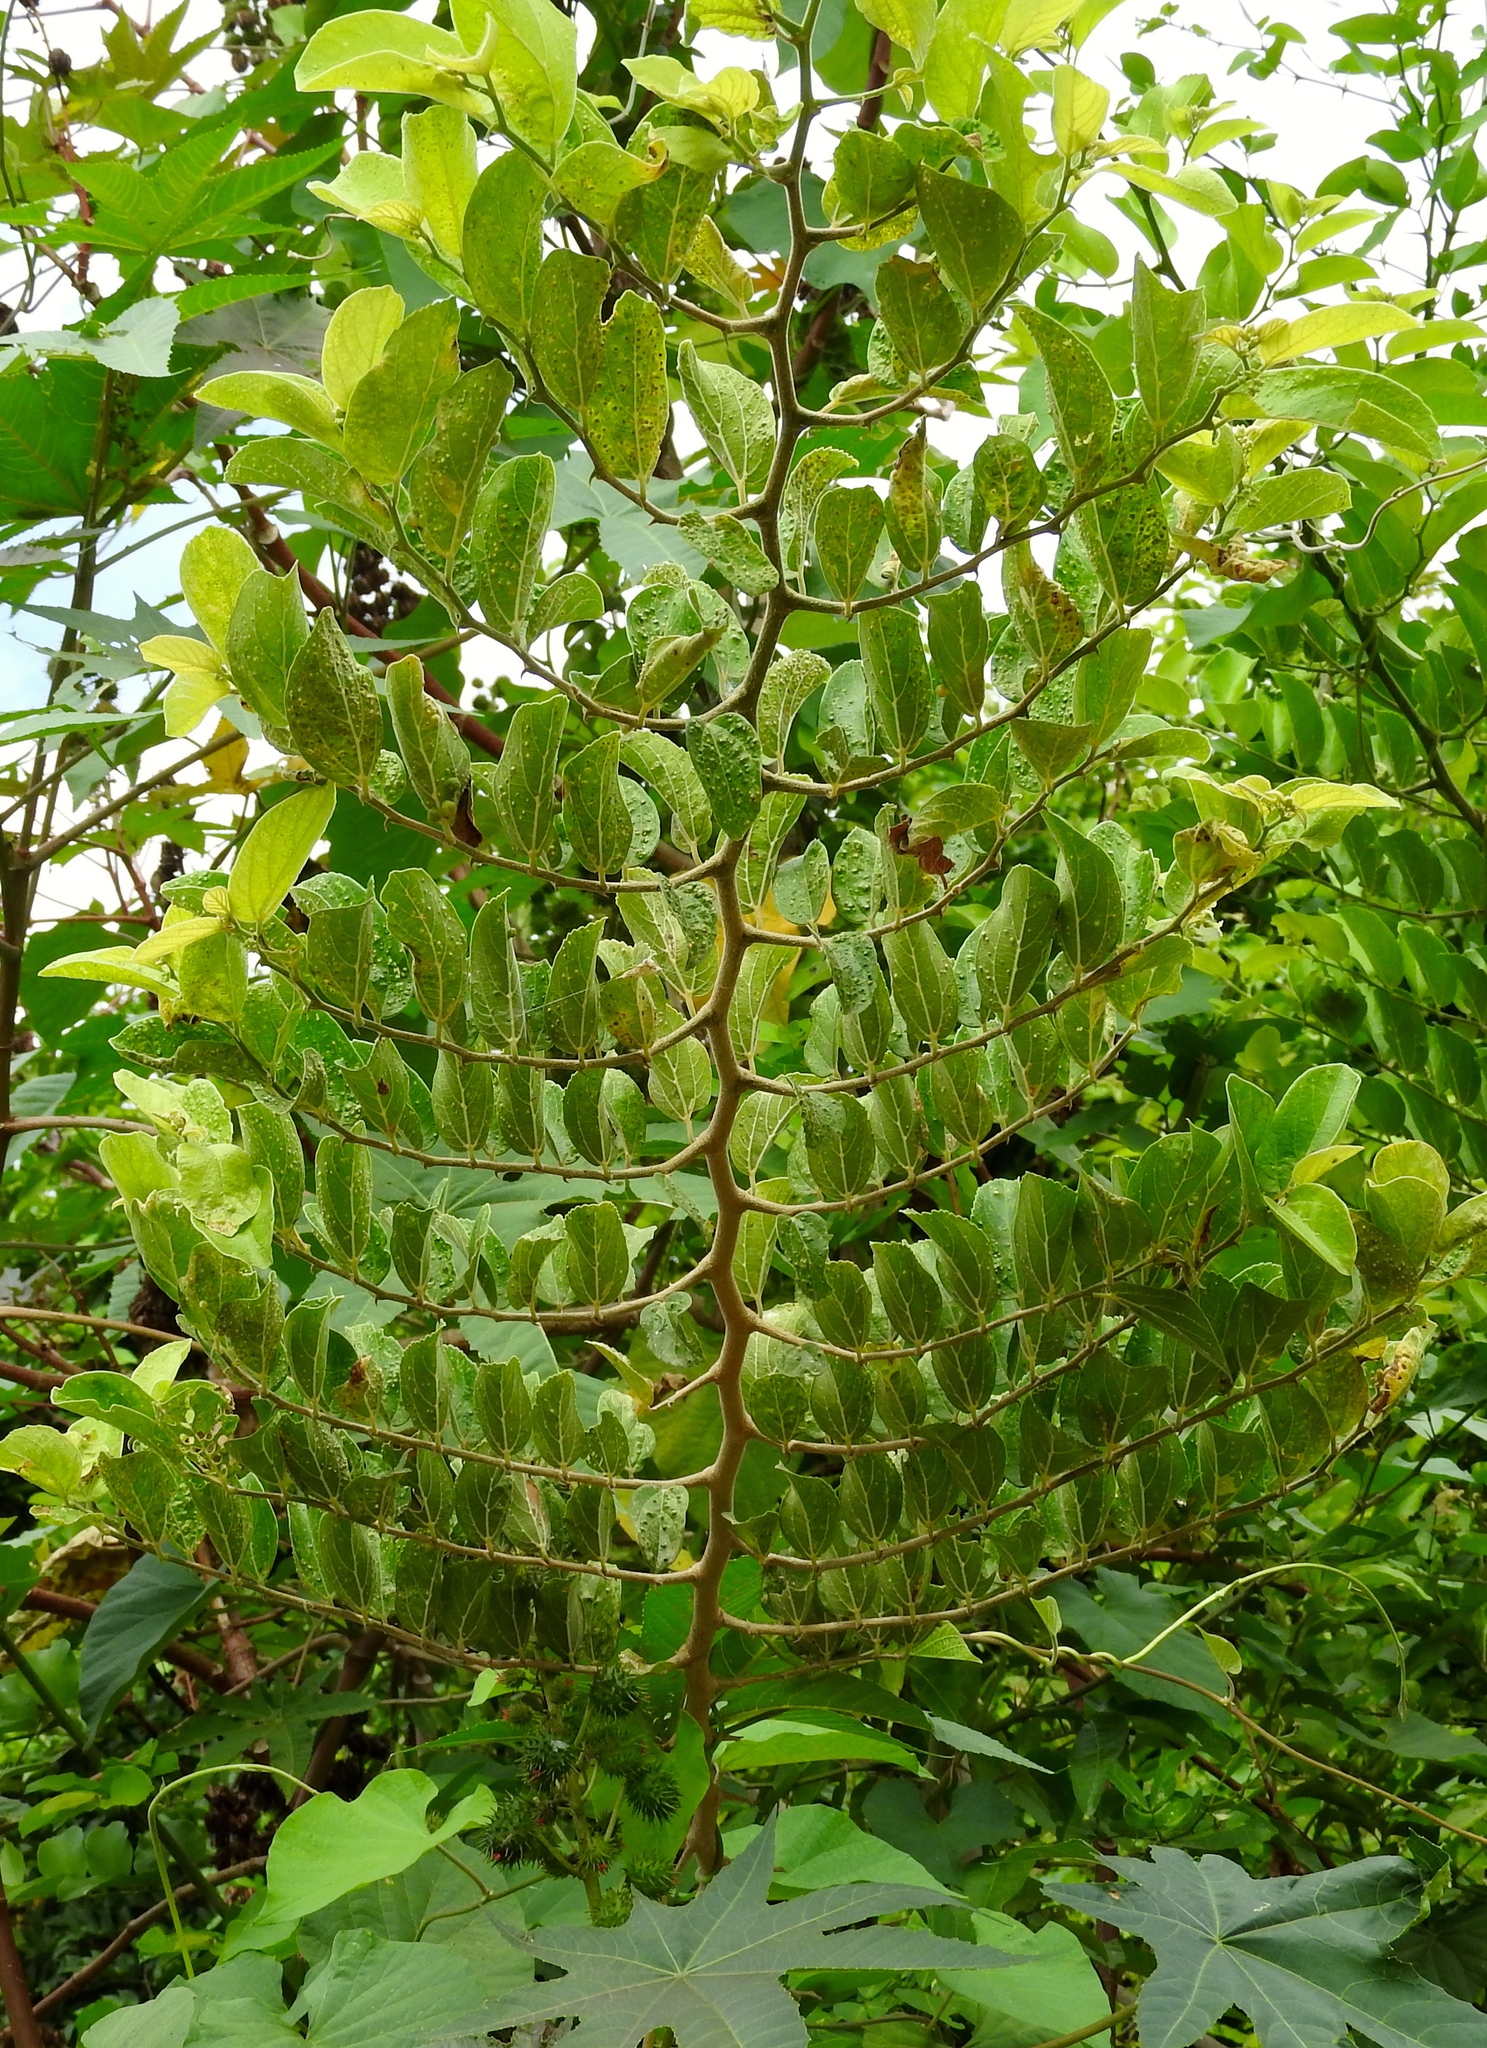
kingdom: Plantae
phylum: Tracheophyta
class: Magnoliopsida
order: Rosales
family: Cannabaceae
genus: Celtis
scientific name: Celtis iguanaea
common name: Iguana hackberry
